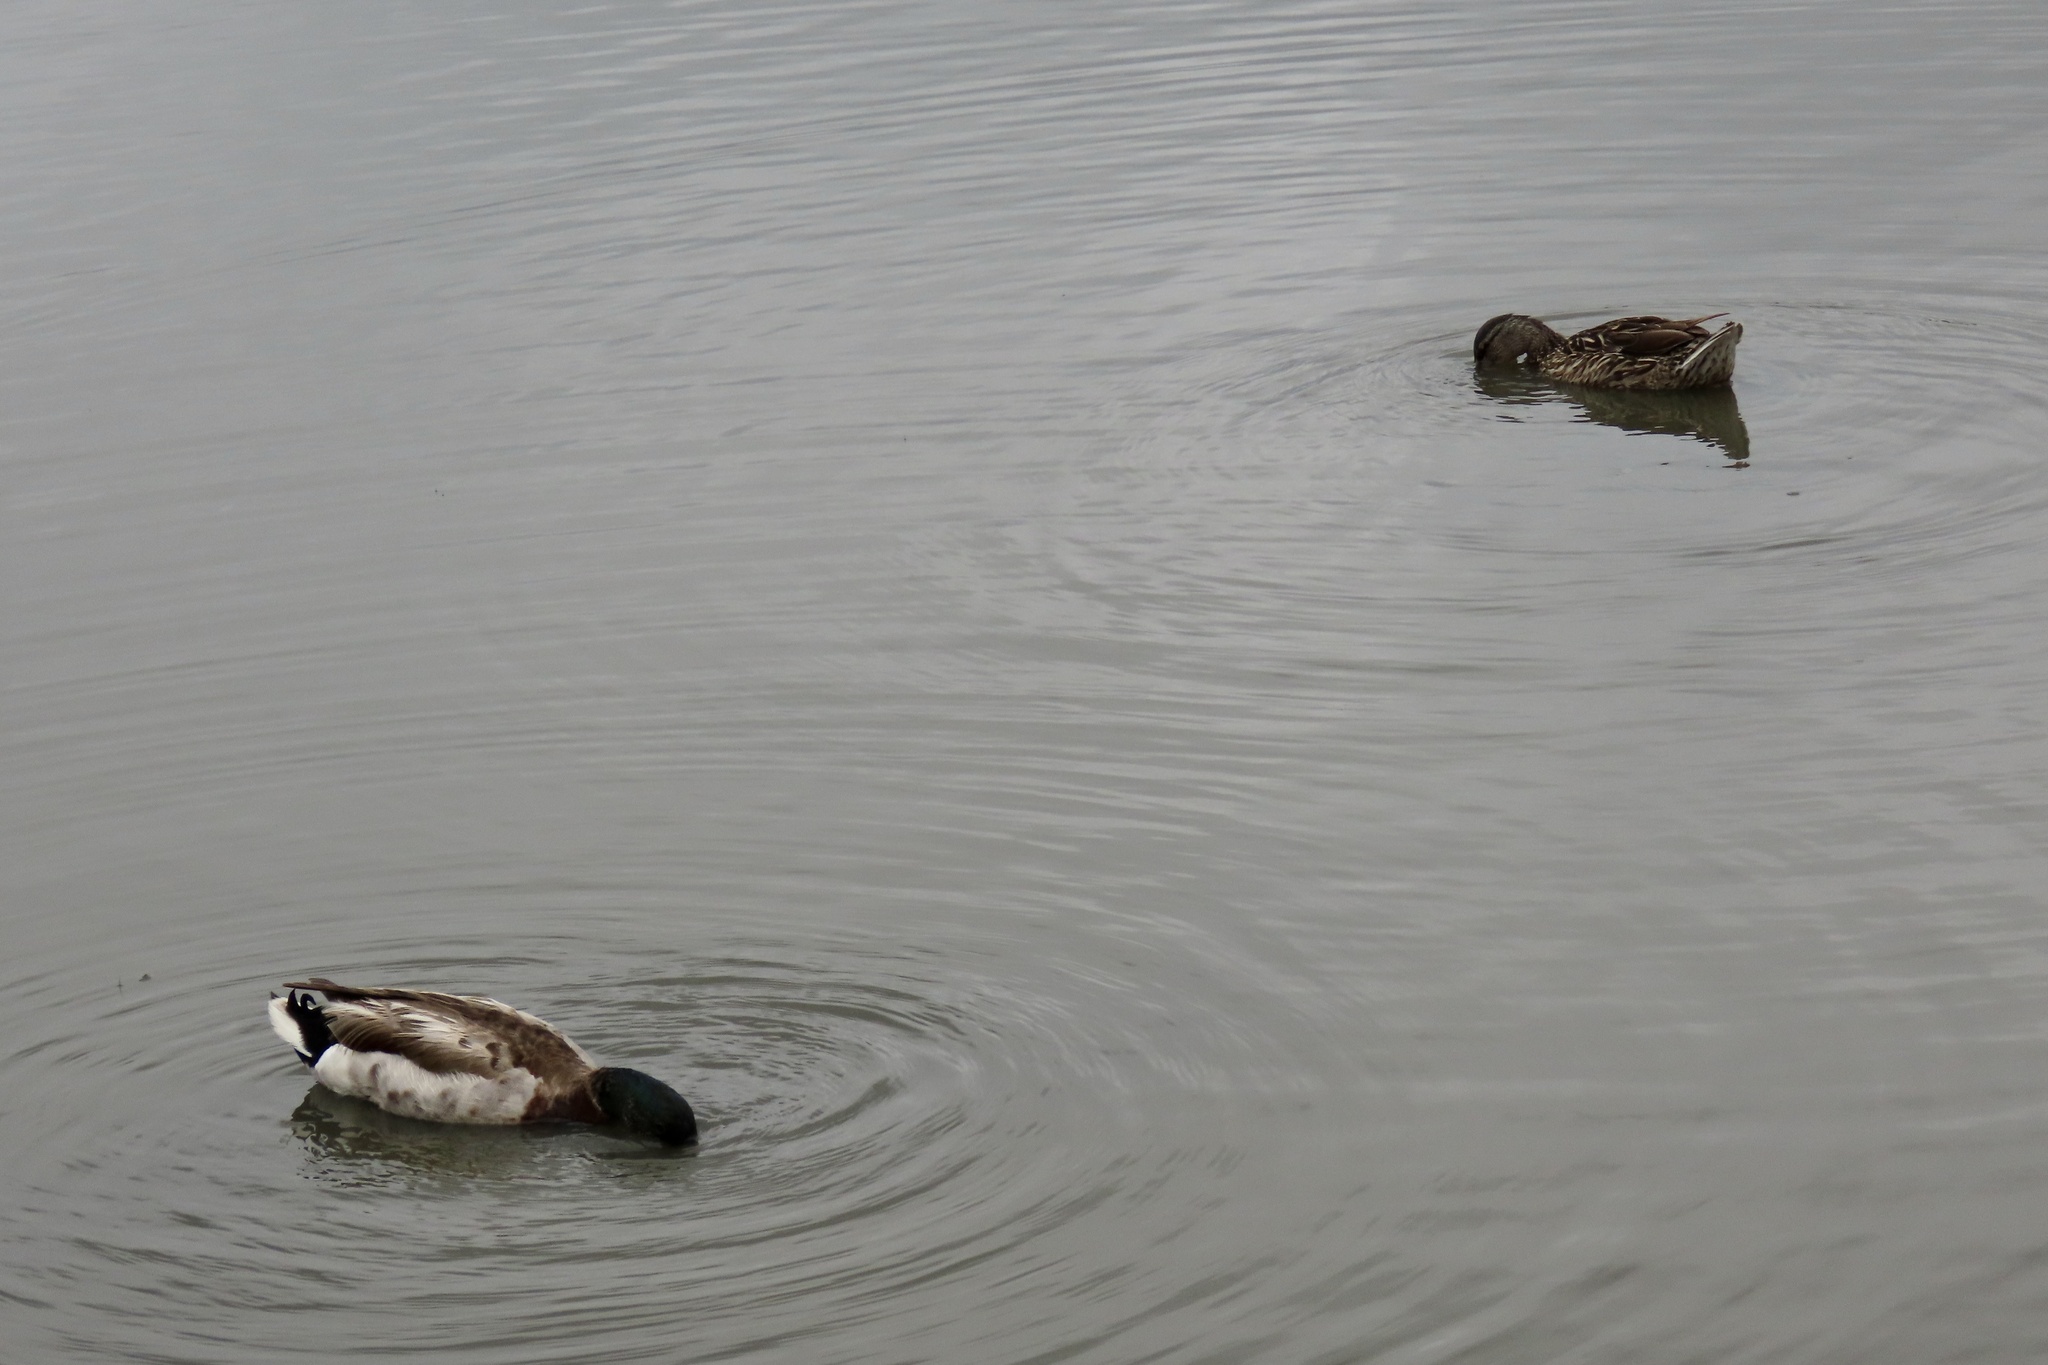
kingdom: Animalia
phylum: Chordata
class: Aves
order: Anseriformes
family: Anatidae
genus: Anas
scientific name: Anas platyrhynchos
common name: Mallard
